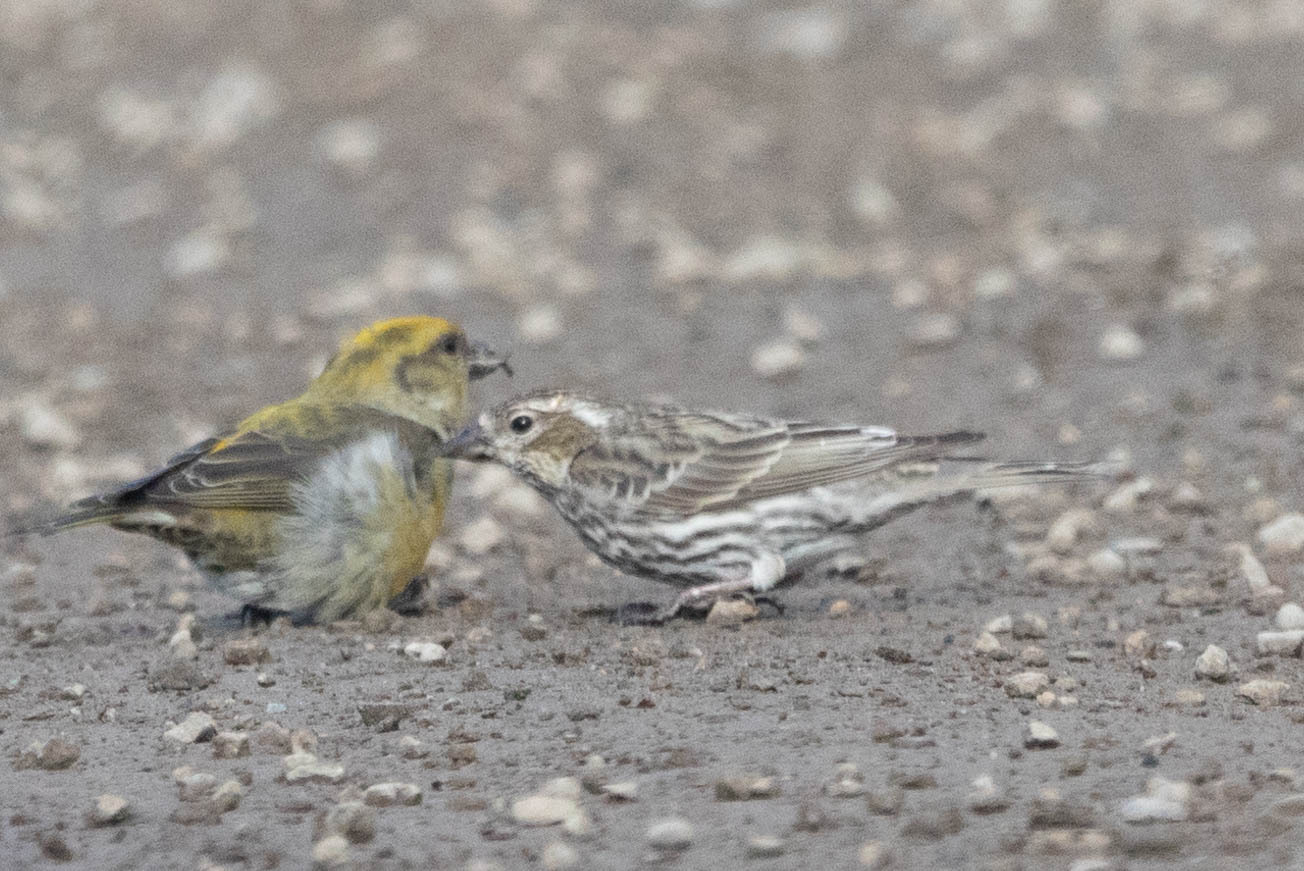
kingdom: Animalia
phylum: Chordata
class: Aves
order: Passeriformes
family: Fringillidae
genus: Haemorhous
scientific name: Haemorhous cassinii
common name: Cassin's finch
